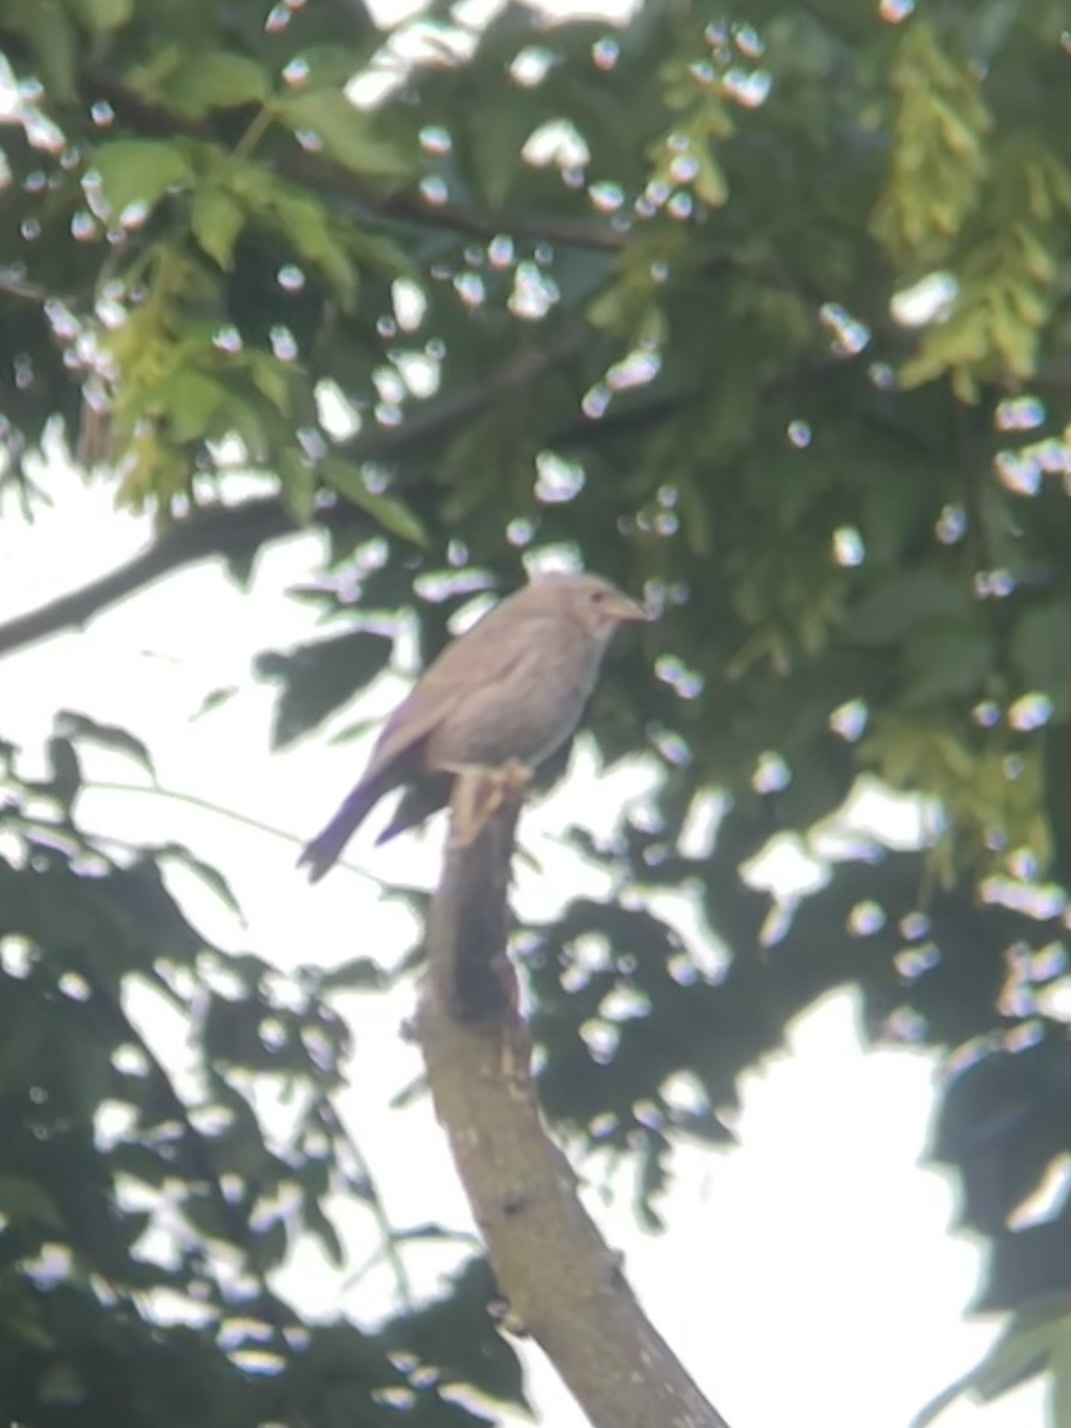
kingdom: Animalia
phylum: Chordata
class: Aves
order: Passeriformes
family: Icteridae
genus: Molothrus
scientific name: Molothrus ater
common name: Brown-headed cowbird
